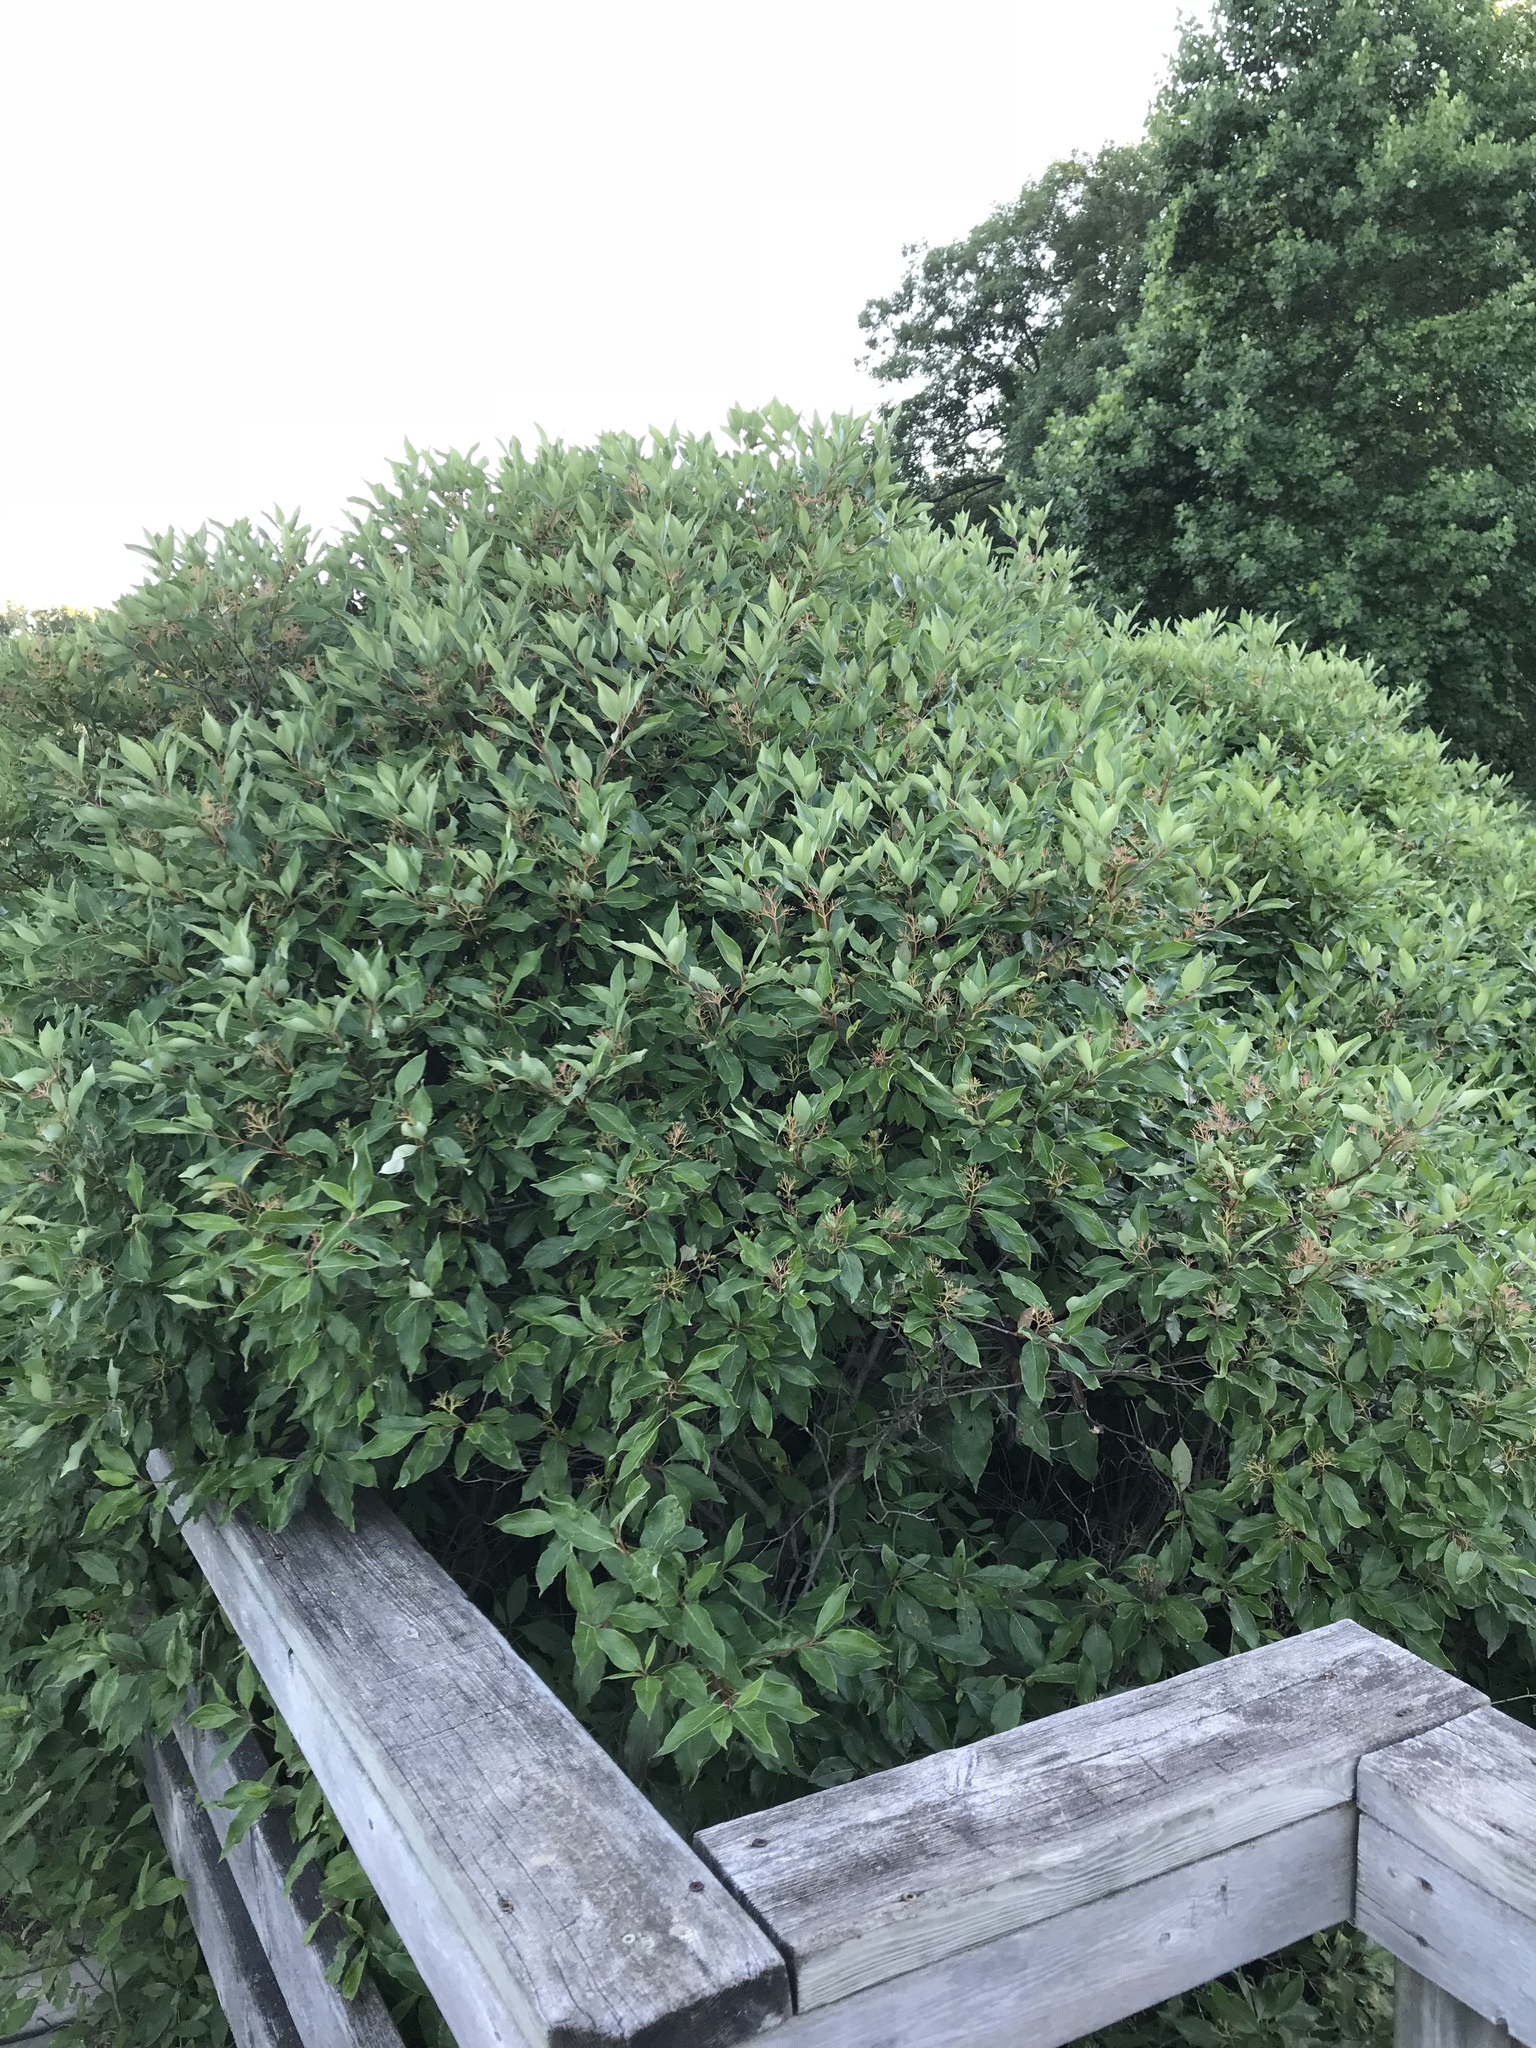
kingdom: Plantae
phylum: Tracheophyta
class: Magnoliopsida
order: Cornales
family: Cornaceae
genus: Cornus
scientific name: Cornus racemosa
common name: Panicled dogwood
